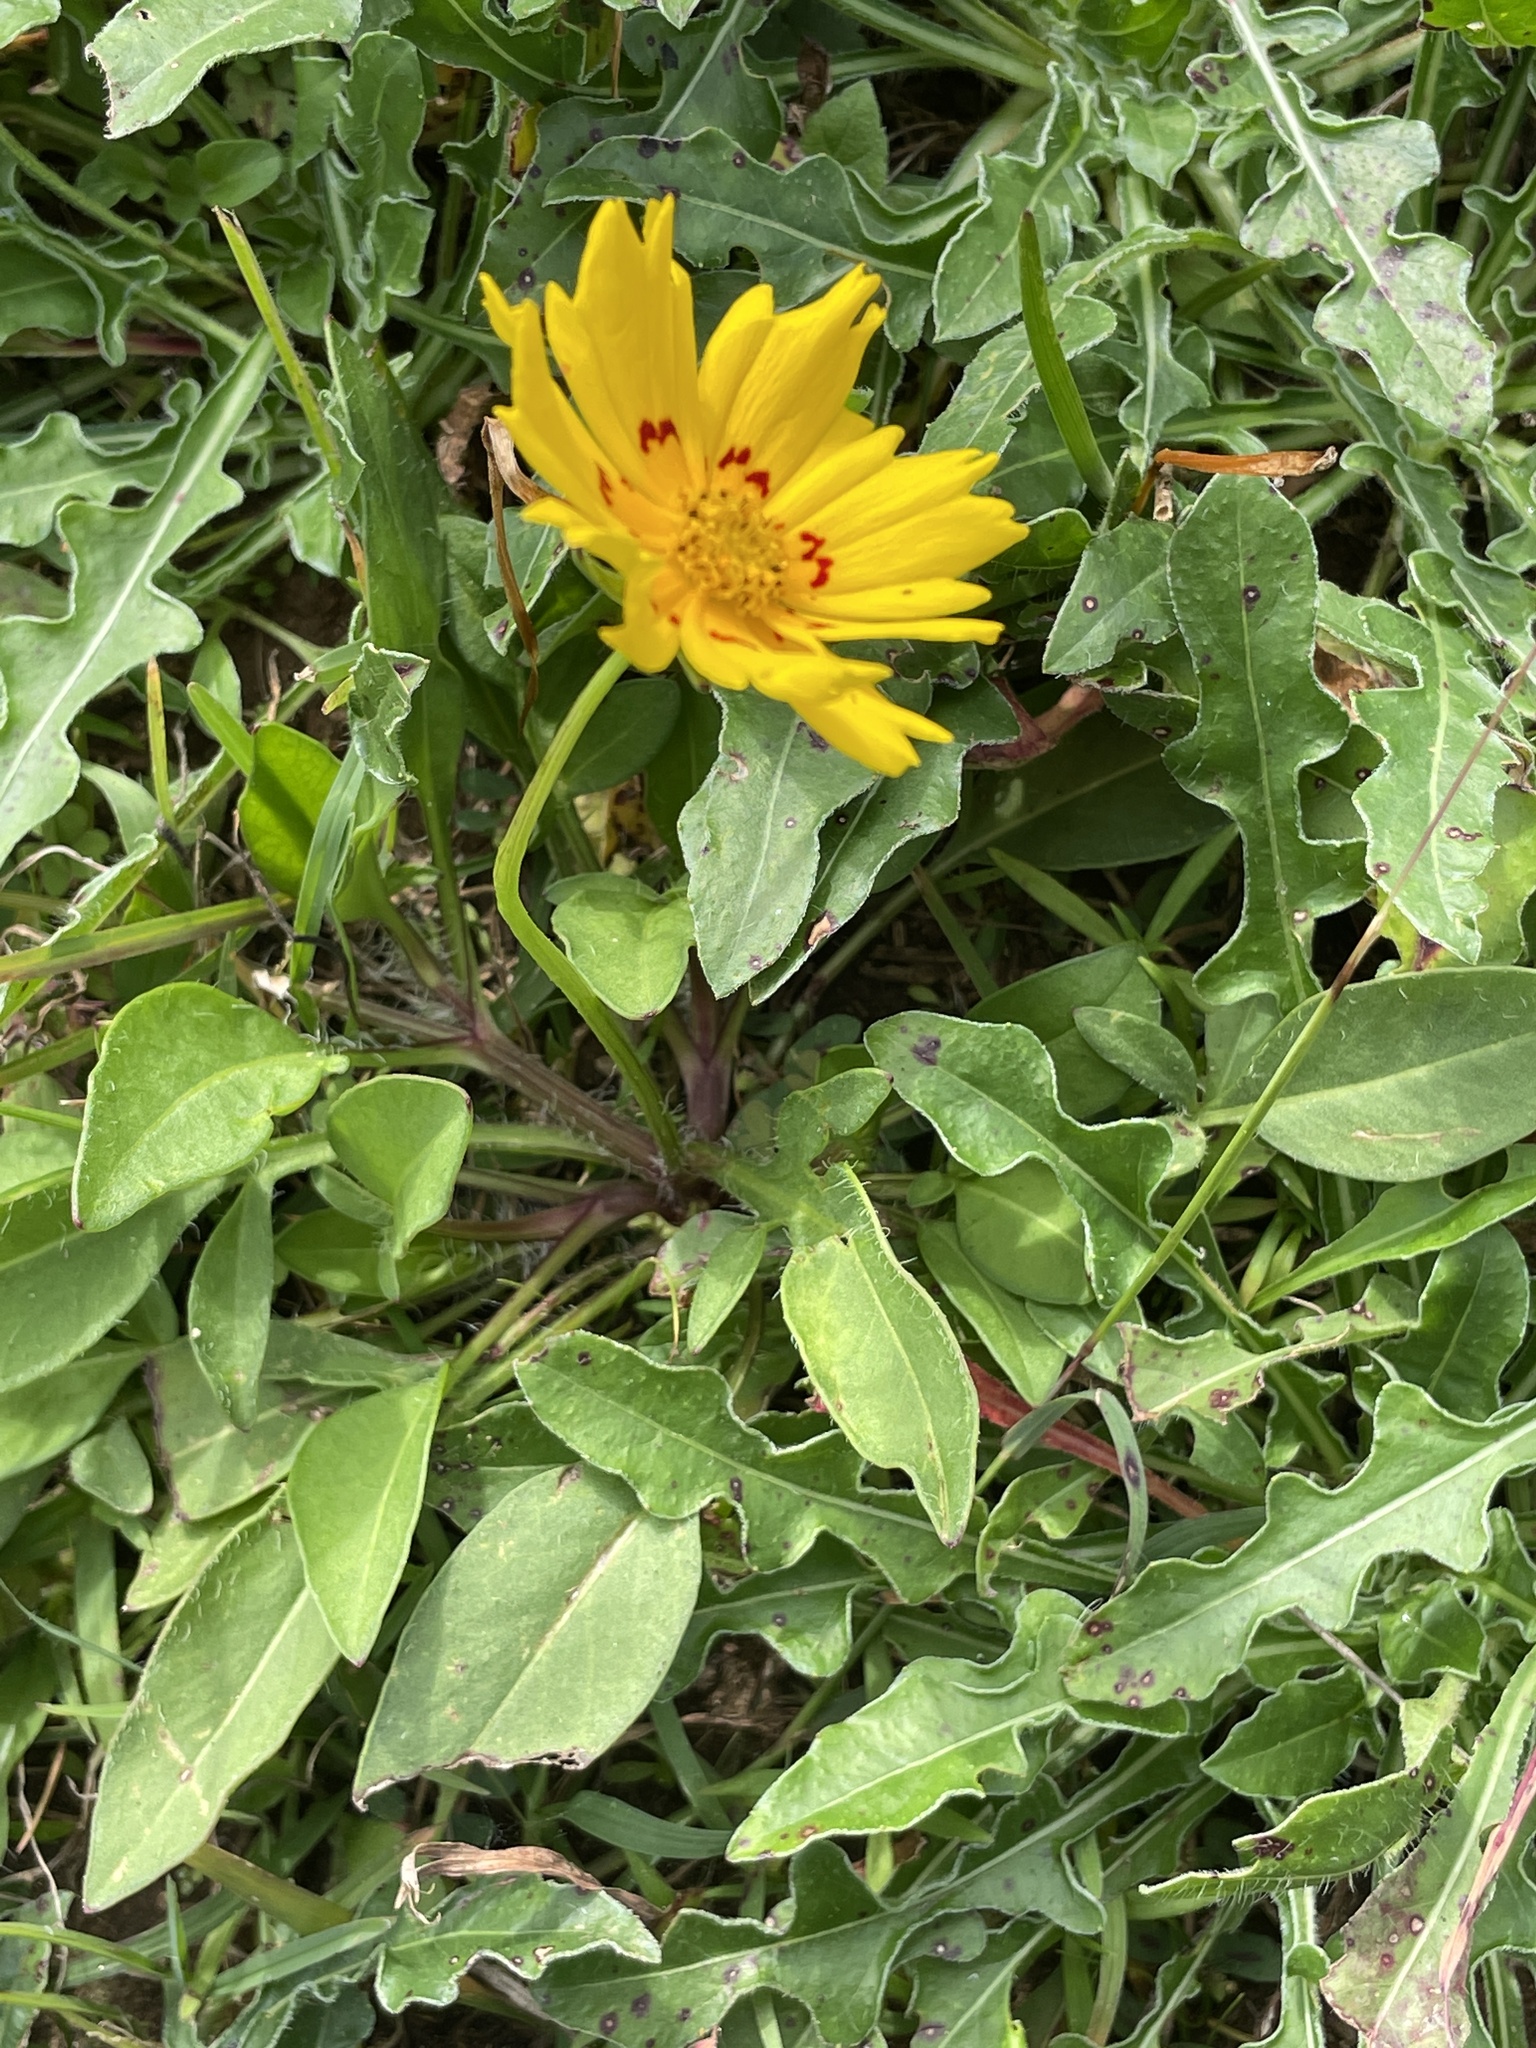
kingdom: Plantae
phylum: Tracheophyta
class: Magnoliopsida
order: Asterales
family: Asteraceae
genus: Coreopsis
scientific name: Coreopsis nuecensis
